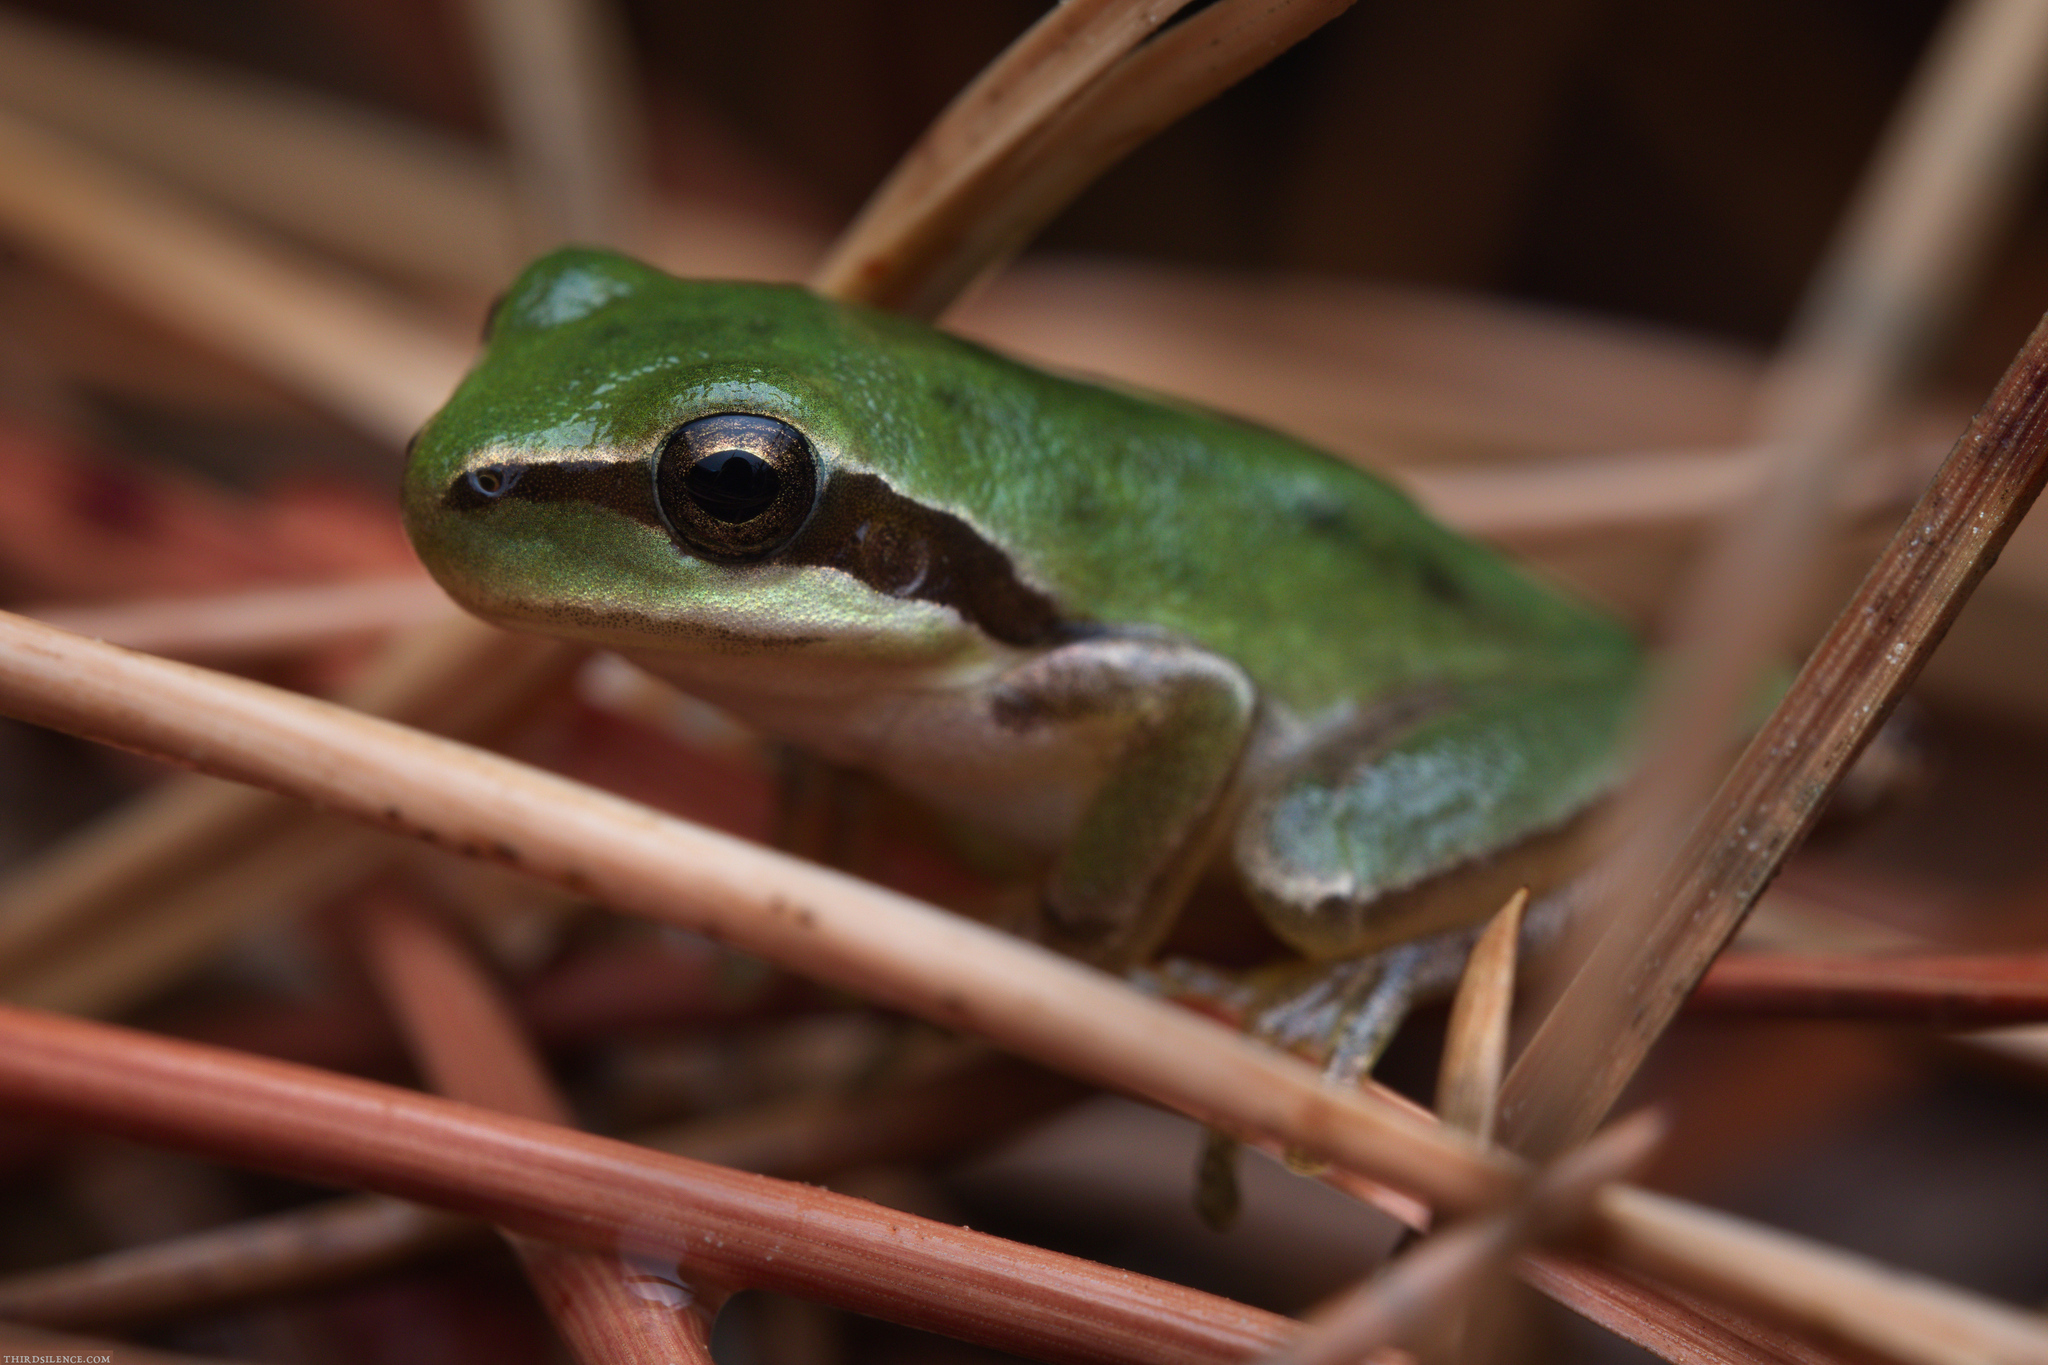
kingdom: Animalia
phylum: Chordata
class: Amphibia
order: Anura
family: Hylidae
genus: Hyla
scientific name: Hyla meridionalis
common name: Stripeless tree frog
